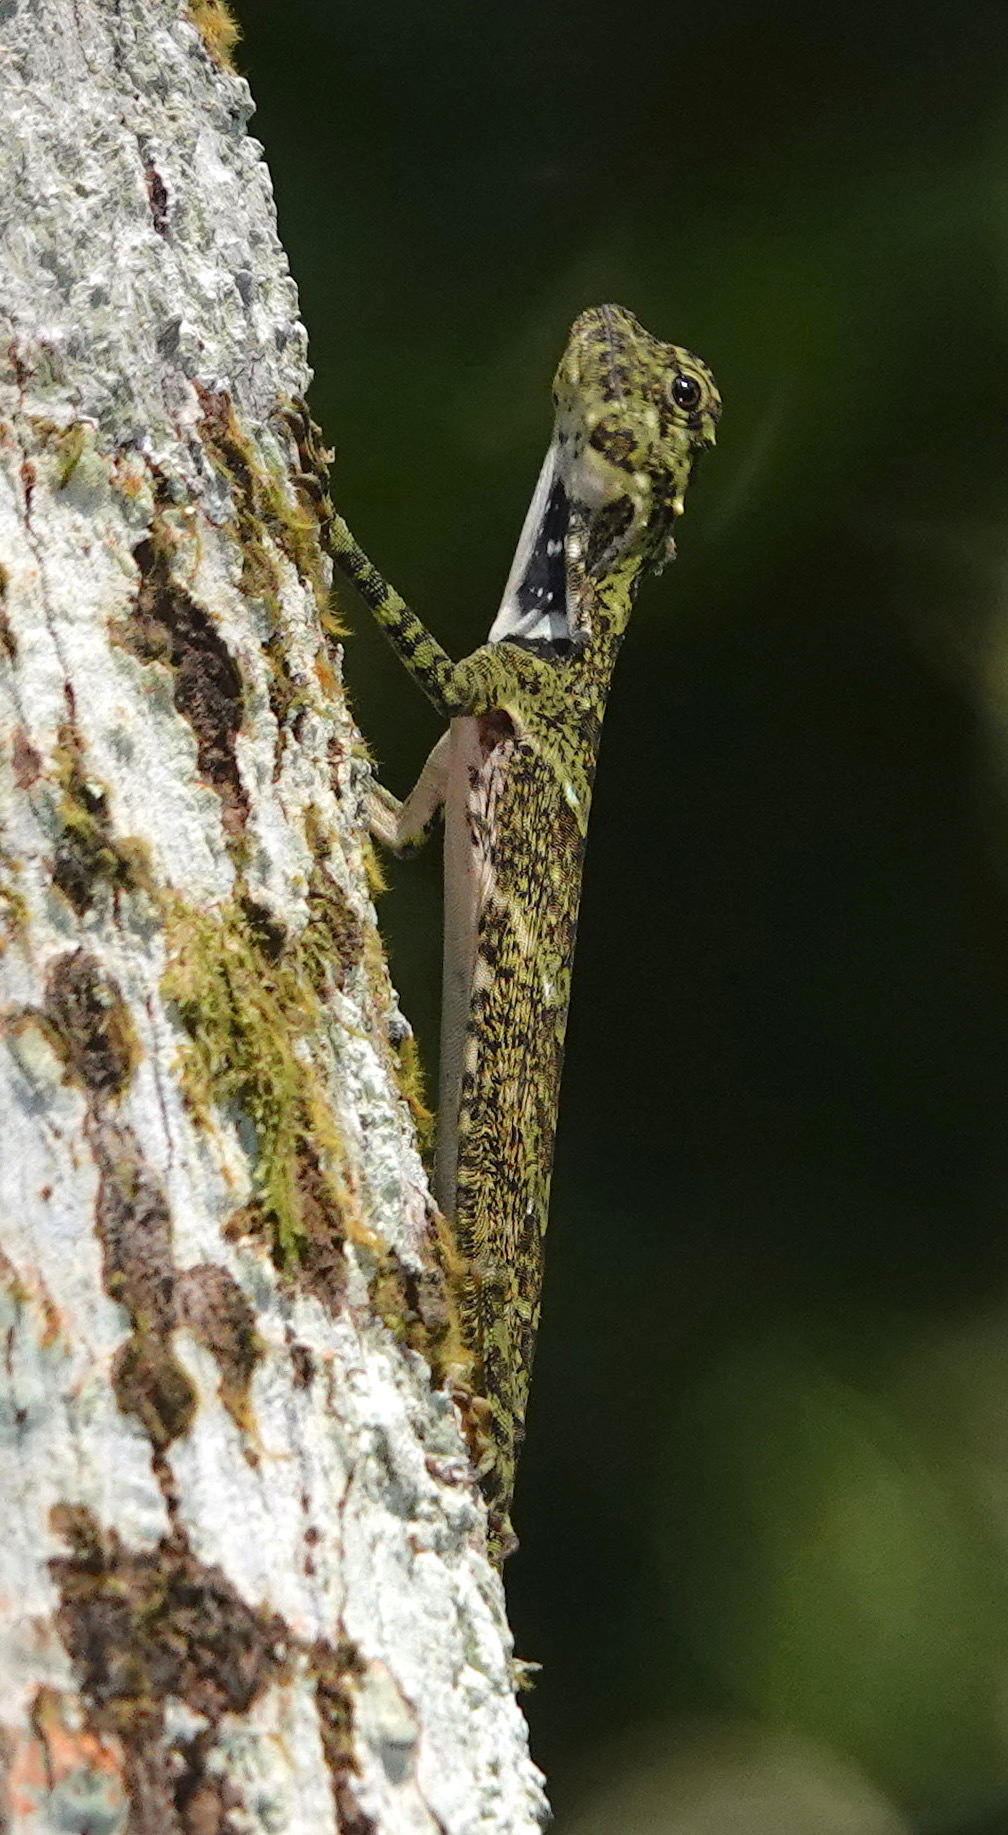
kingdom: Animalia
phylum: Chordata
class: Squamata
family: Agamidae
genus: Draco
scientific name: Draco sumatranus
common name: Common gliding lizard
